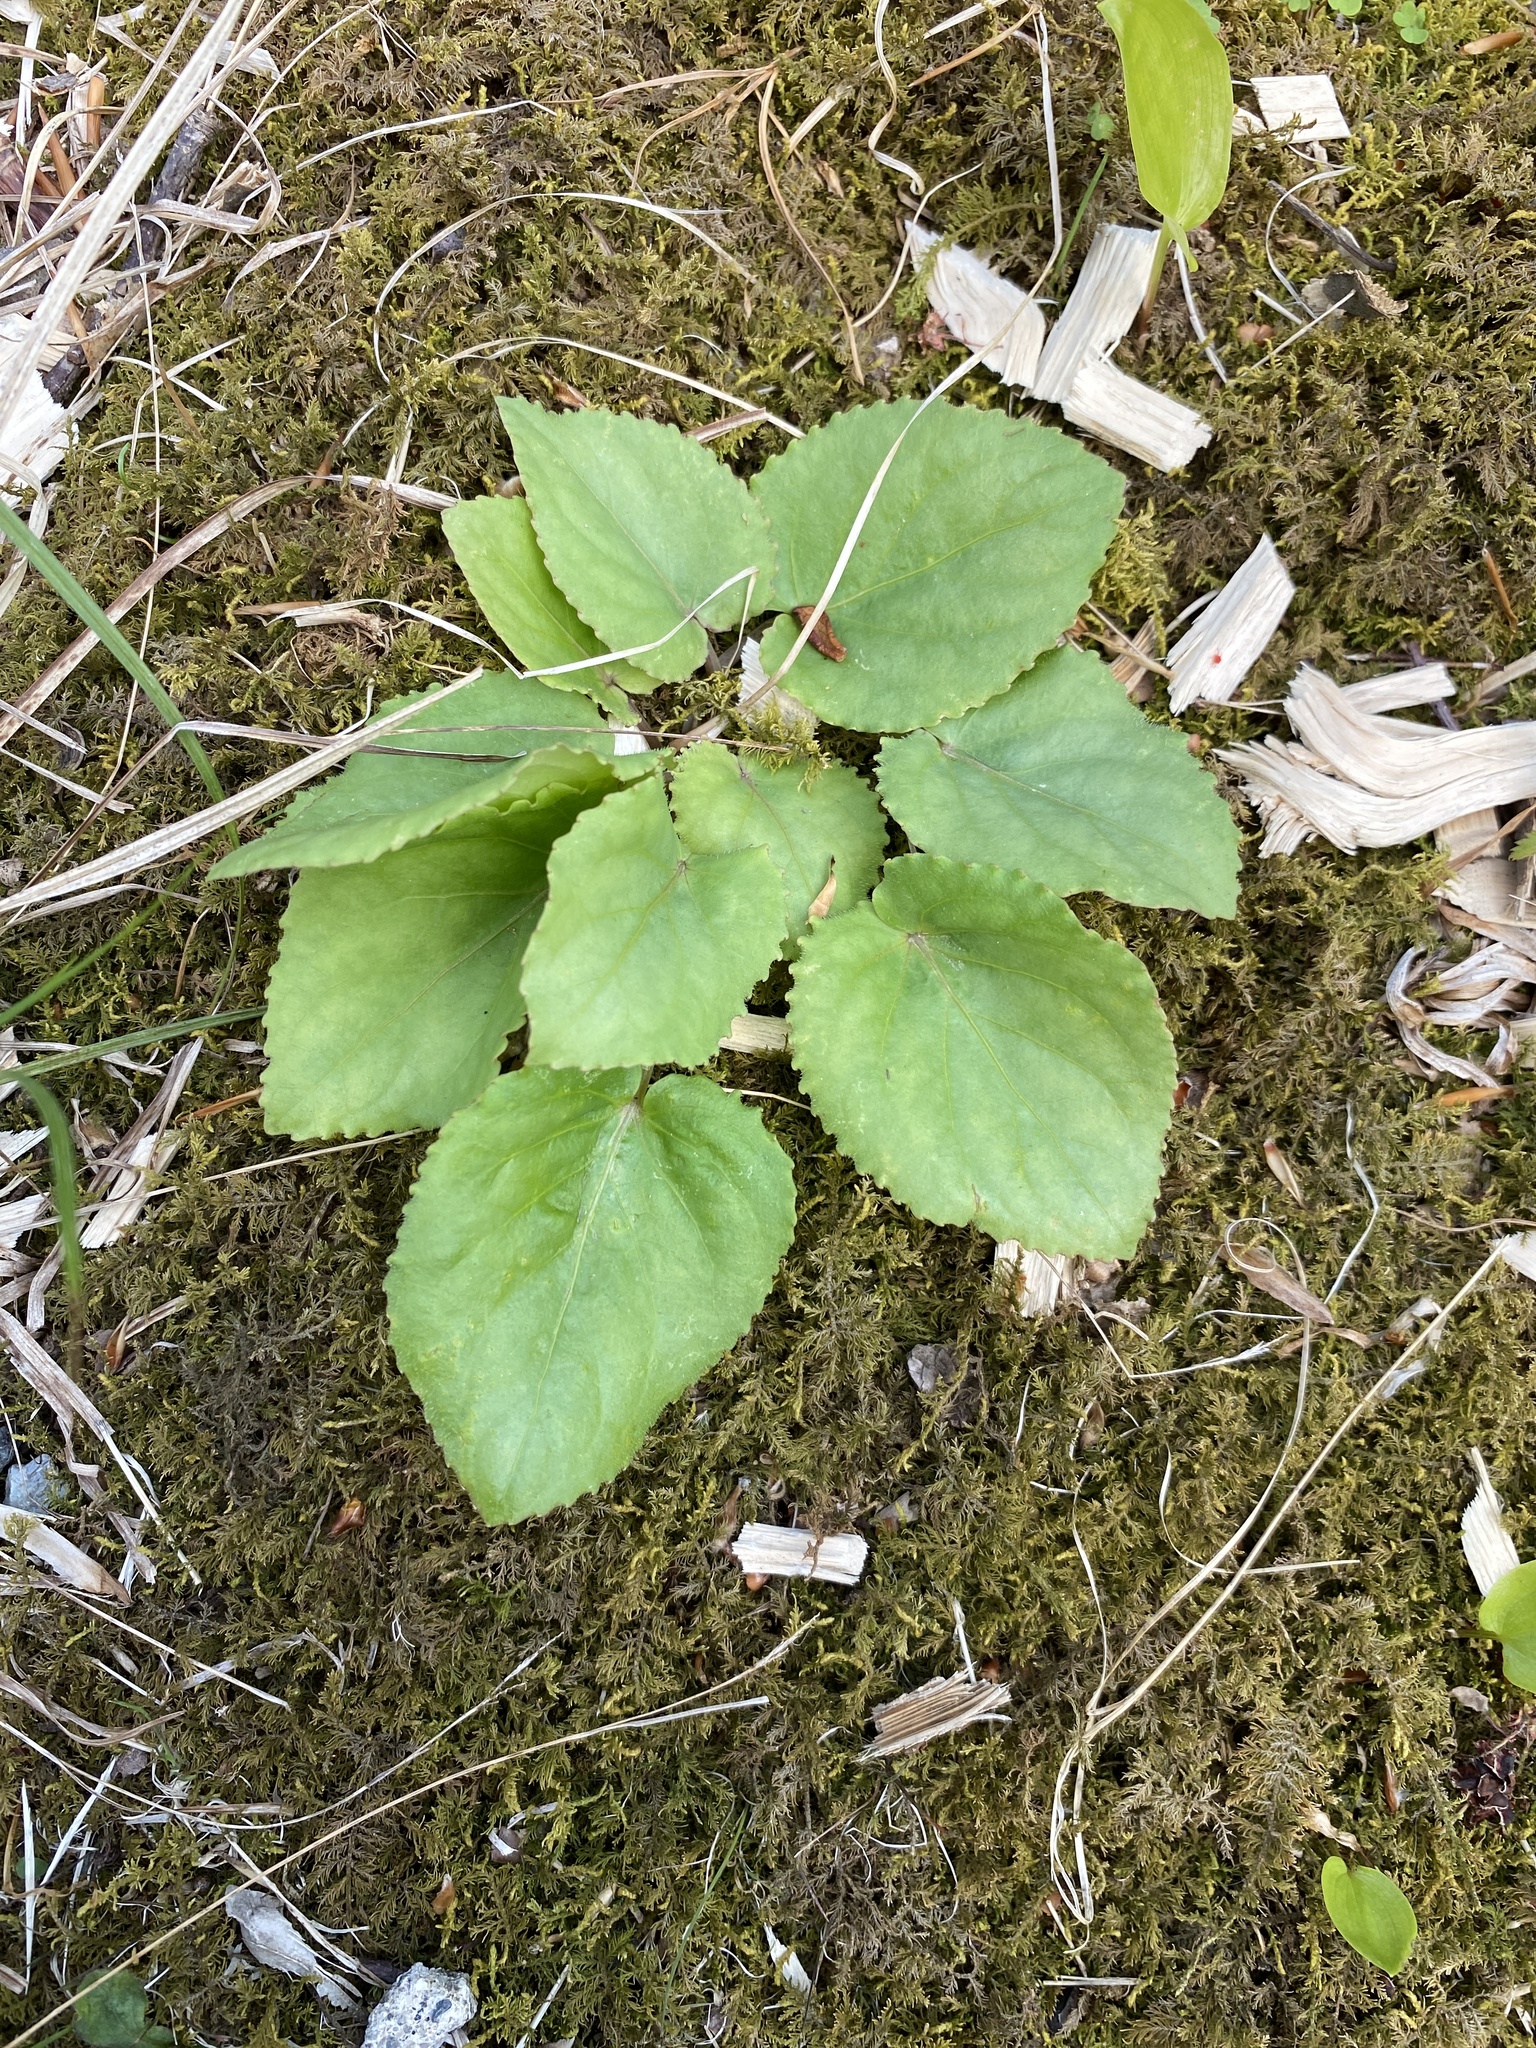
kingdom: Plantae
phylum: Tracheophyta
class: Magnoliopsida
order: Malpighiales
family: Violaceae
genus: Viola
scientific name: Viola rotundifolia
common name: Early yellow violet
